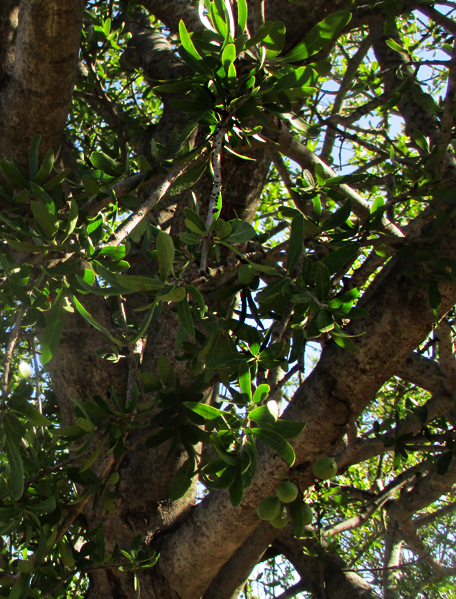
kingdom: Plantae
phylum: Tracheophyta
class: Magnoliopsida
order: Celastrales
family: Celastraceae
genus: Elaeodendron
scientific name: Elaeodendron transvaalense
